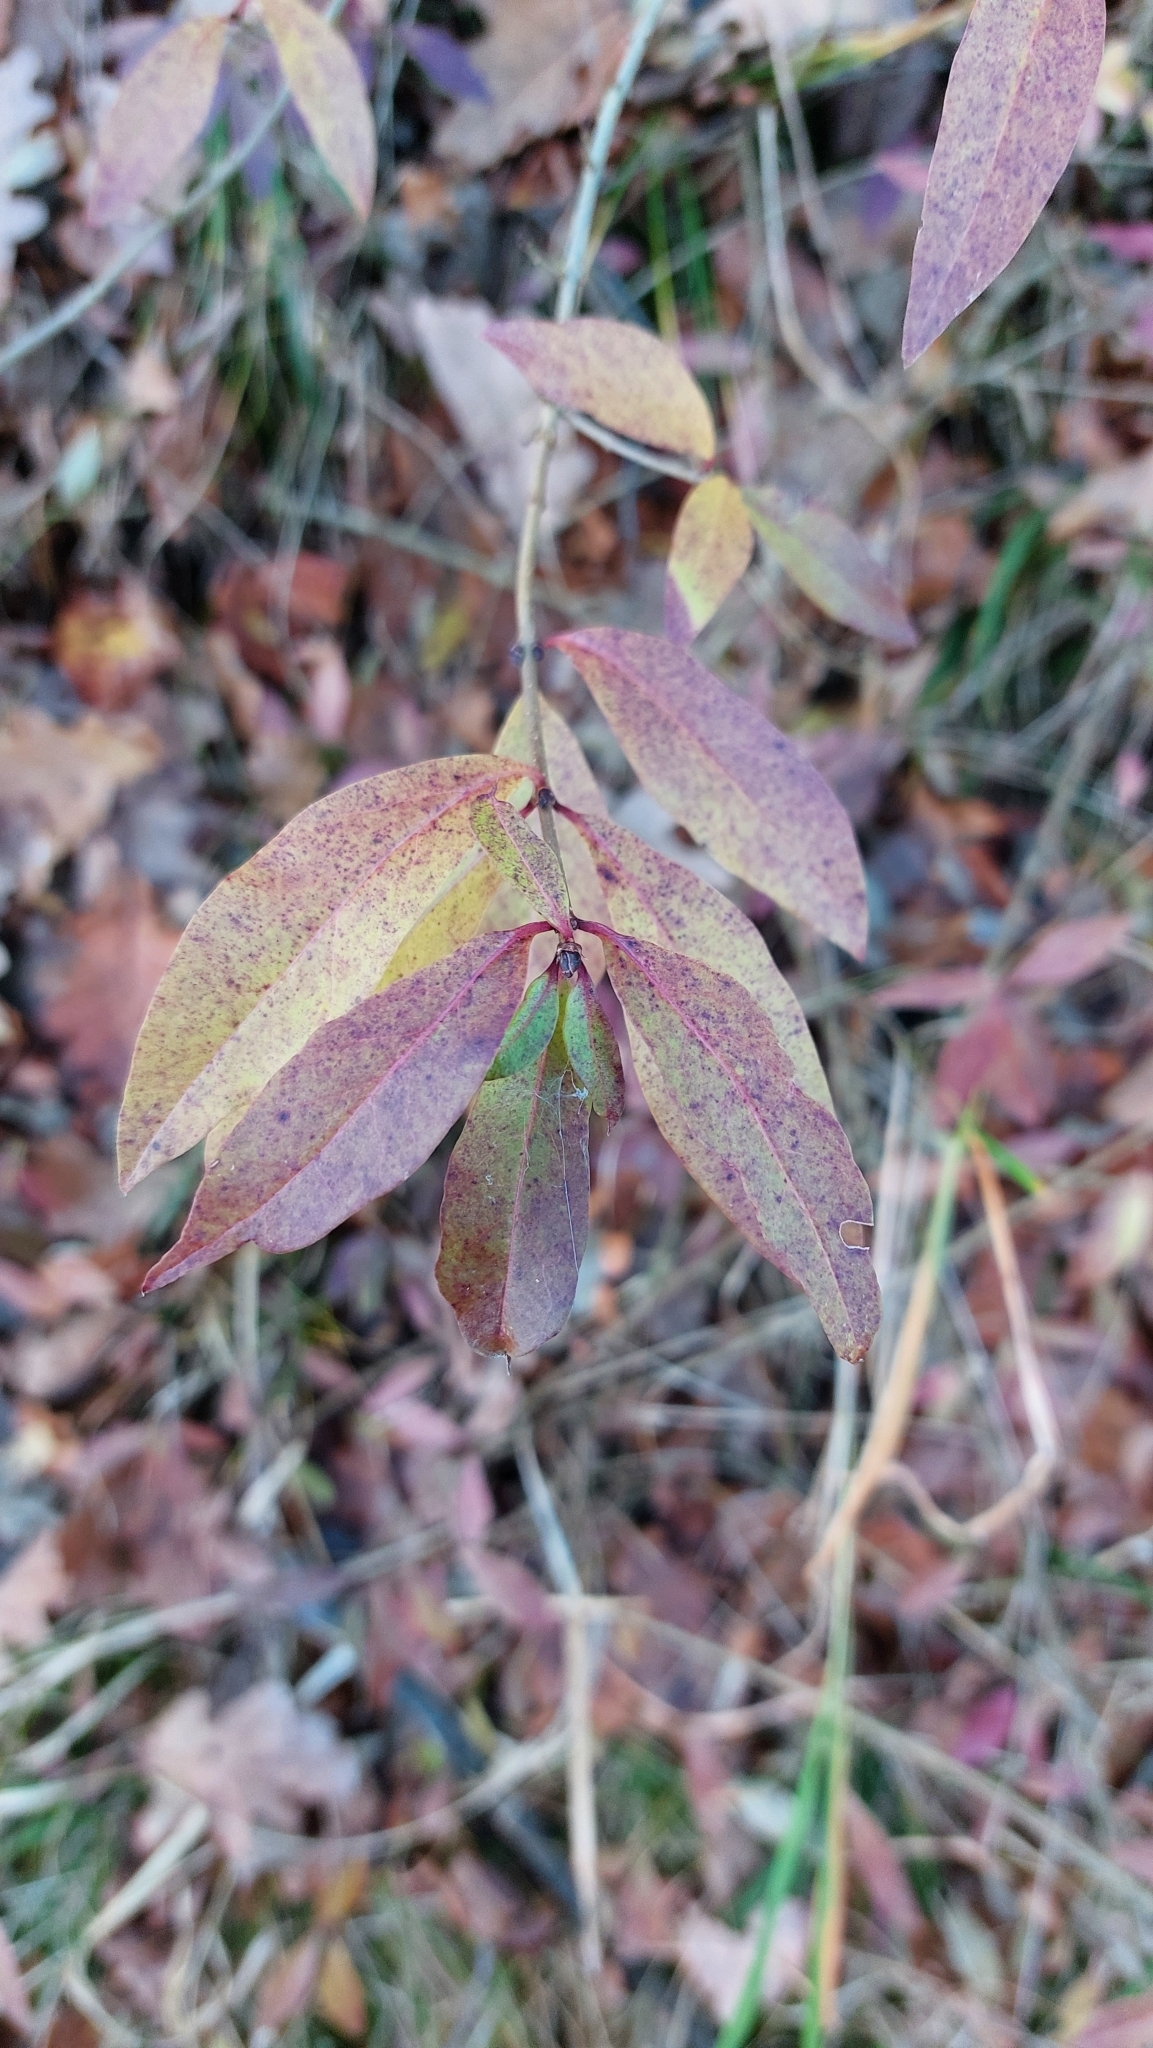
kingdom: Plantae
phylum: Tracheophyta
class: Magnoliopsida
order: Lamiales
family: Oleaceae
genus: Ligustrum
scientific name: Ligustrum vulgare
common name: Wild privet
